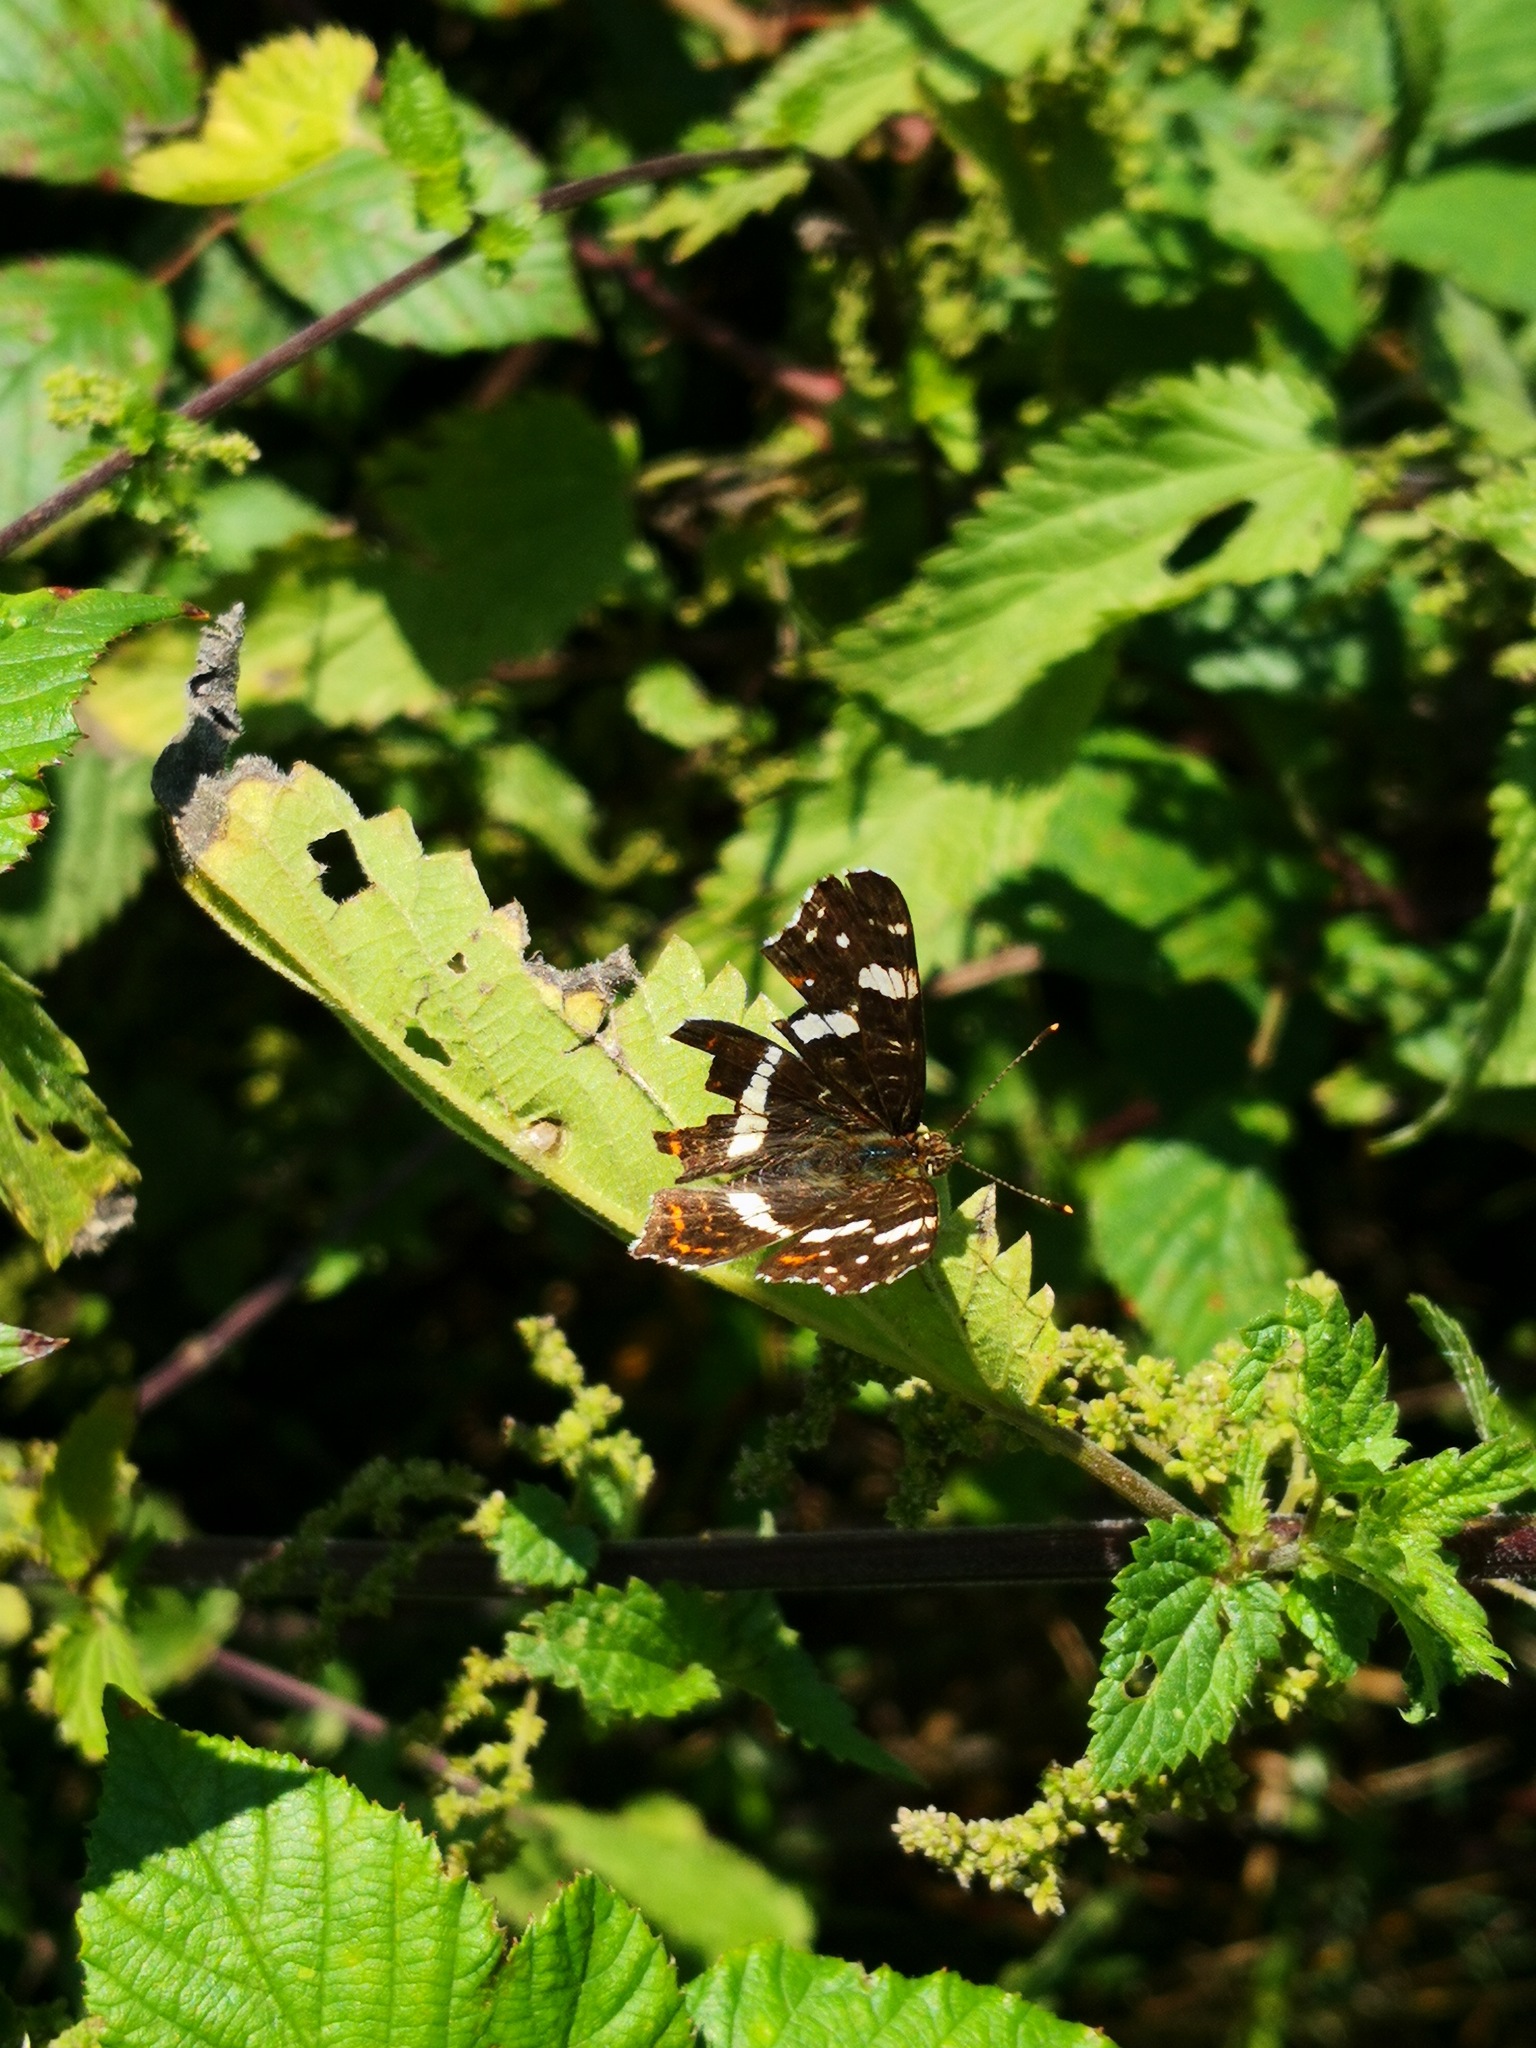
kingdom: Animalia
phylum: Arthropoda
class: Insecta
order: Lepidoptera
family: Nymphalidae
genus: Araschnia
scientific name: Araschnia levana
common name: Map butterfly
